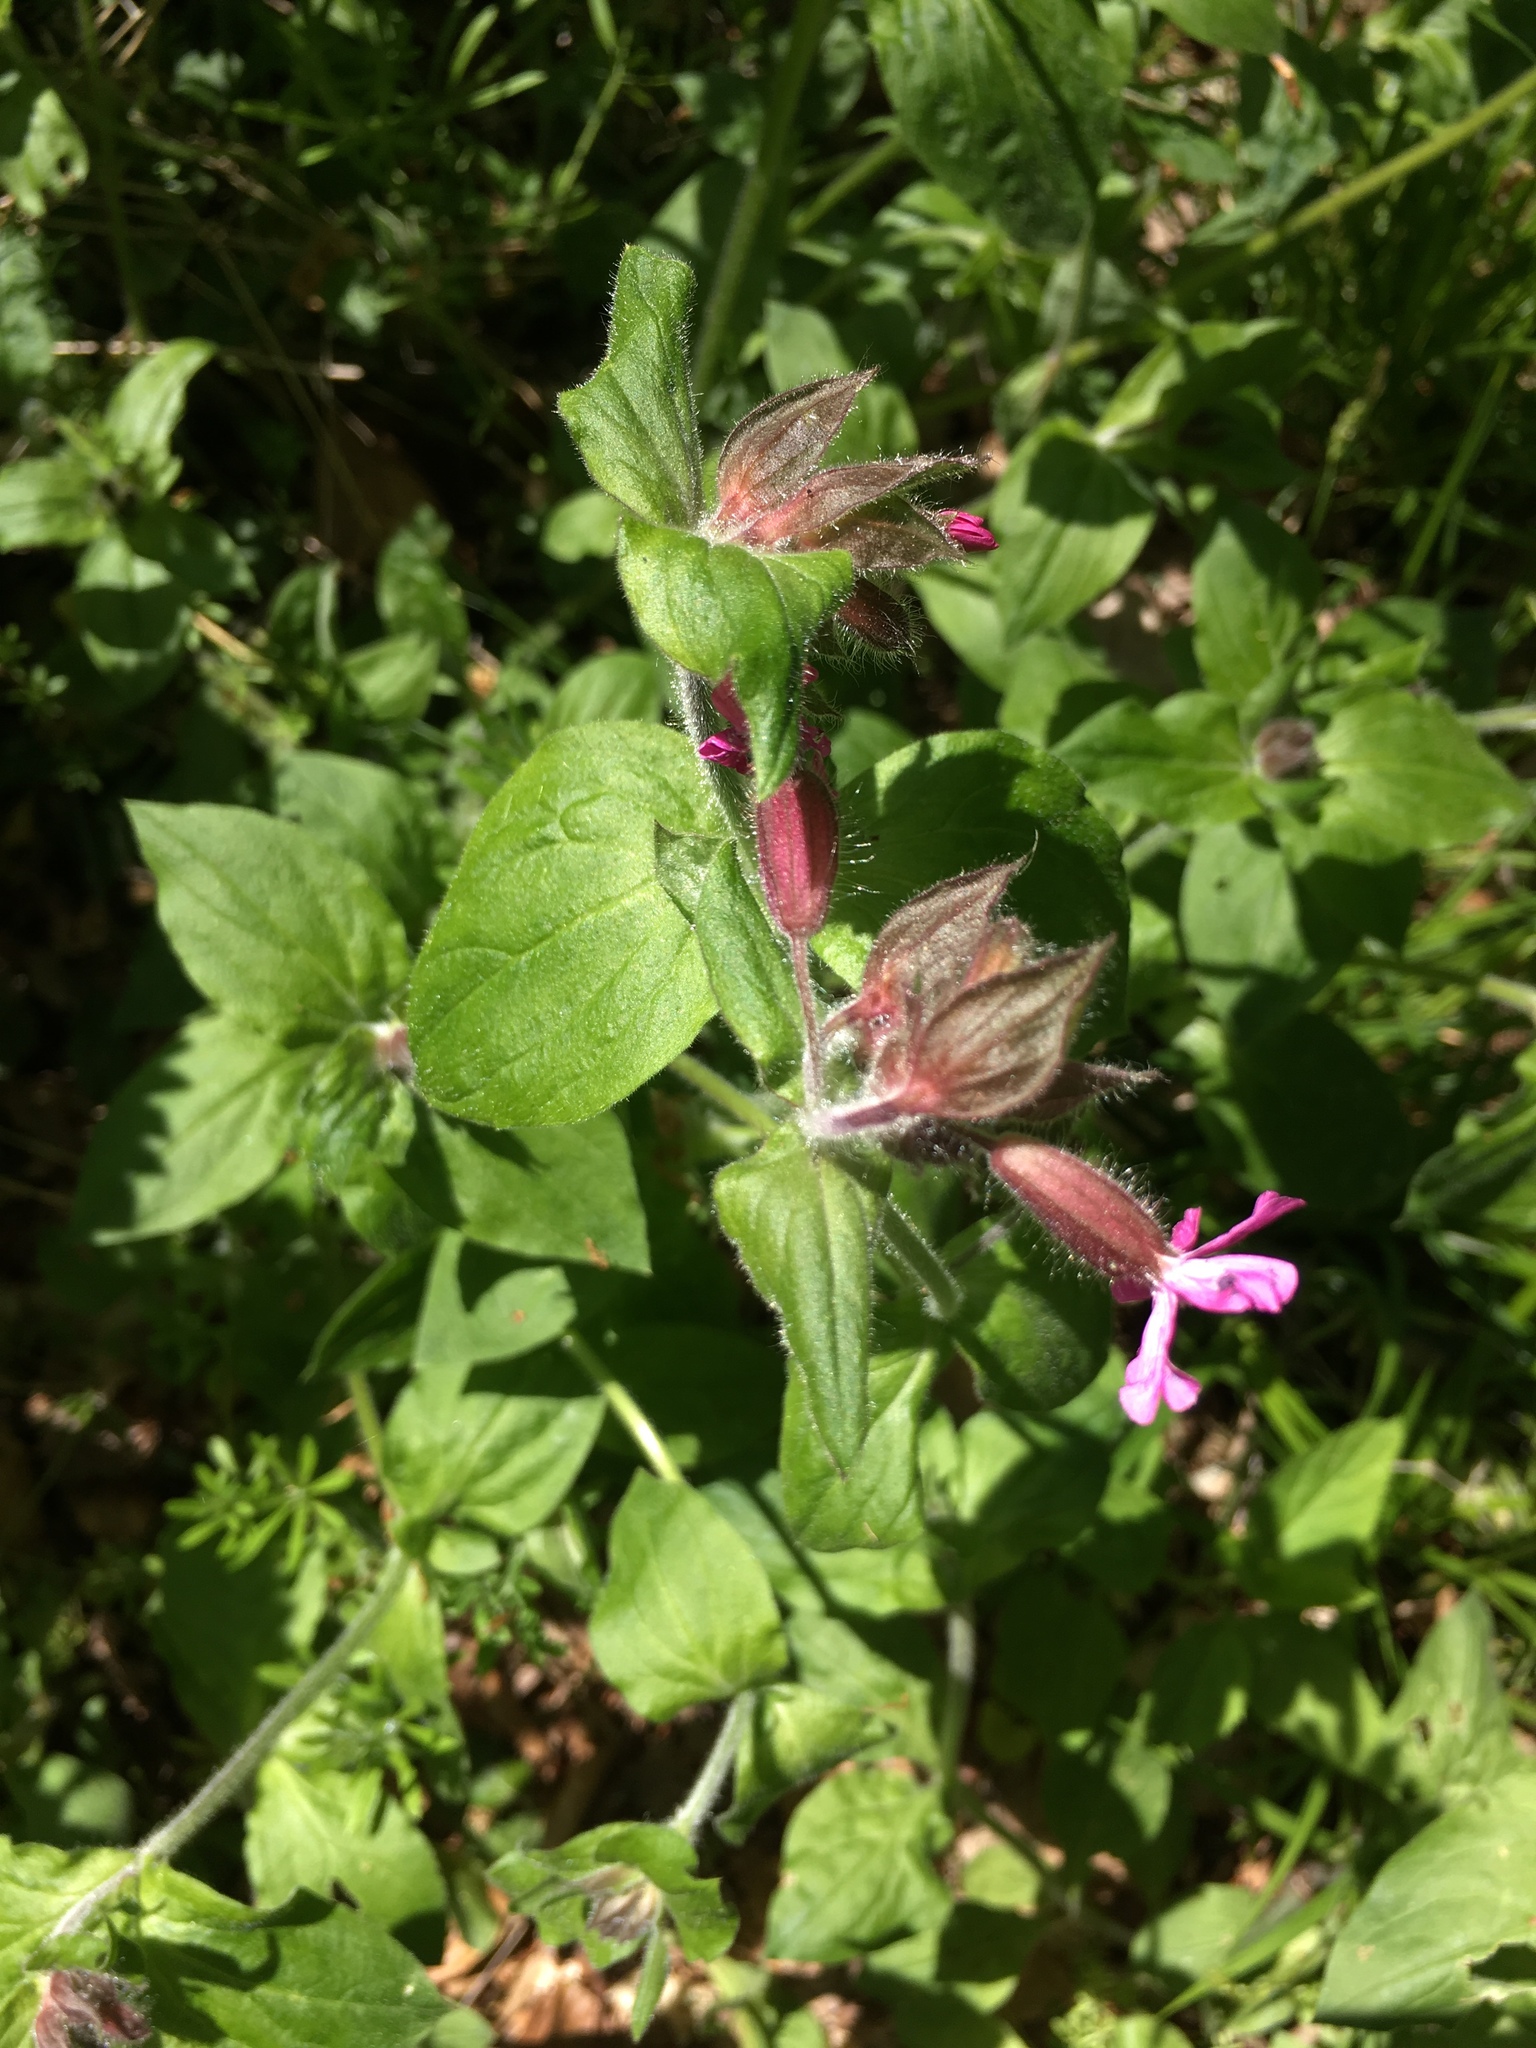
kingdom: Plantae
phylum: Tracheophyta
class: Magnoliopsida
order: Caryophyllales
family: Caryophyllaceae
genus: Silene
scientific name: Silene dioica
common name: Red campion
